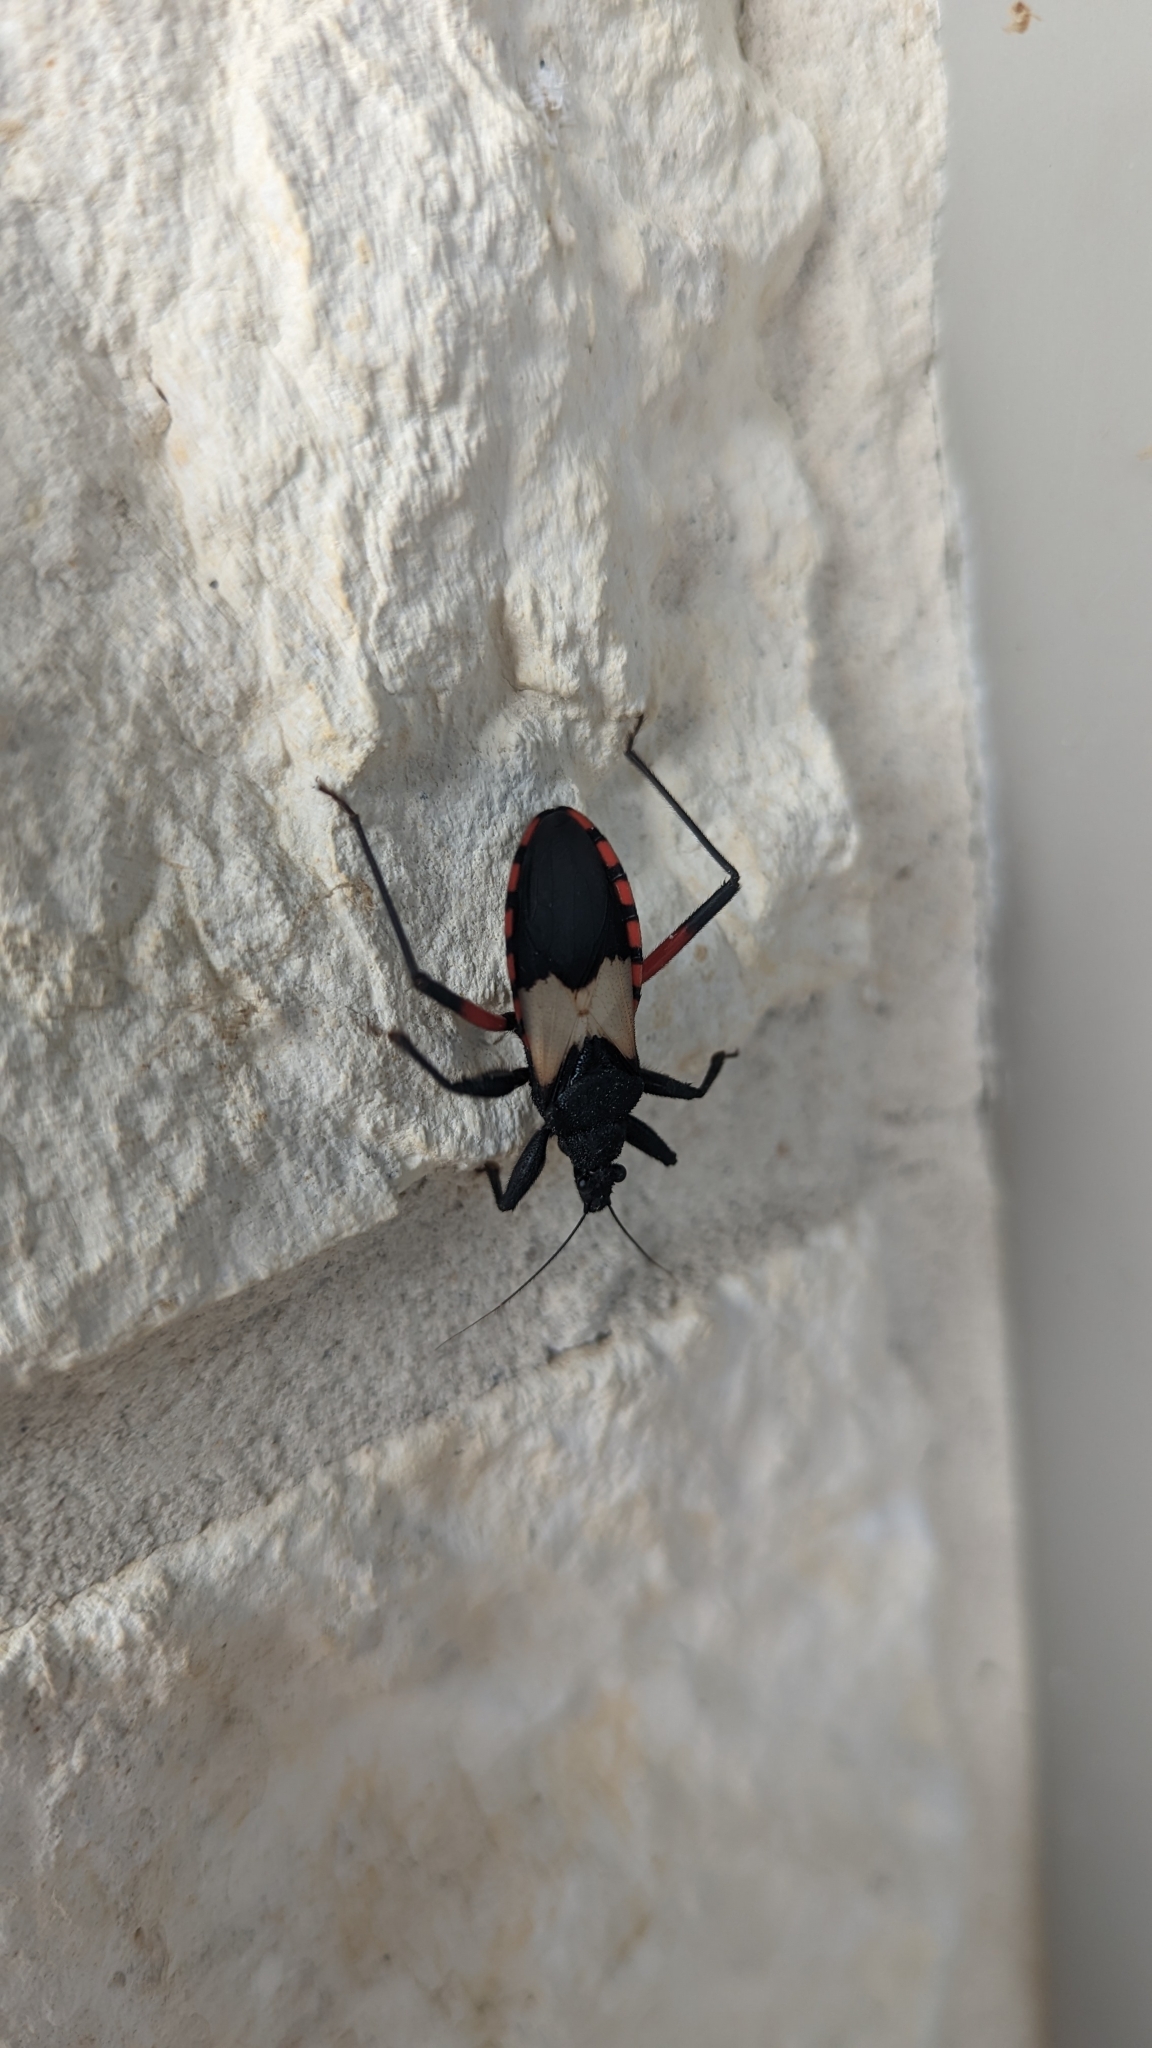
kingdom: Animalia
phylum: Arthropoda
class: Insecta
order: Hemiptera
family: Reduviidae
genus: Microtomus
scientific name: Microtomus purcis
